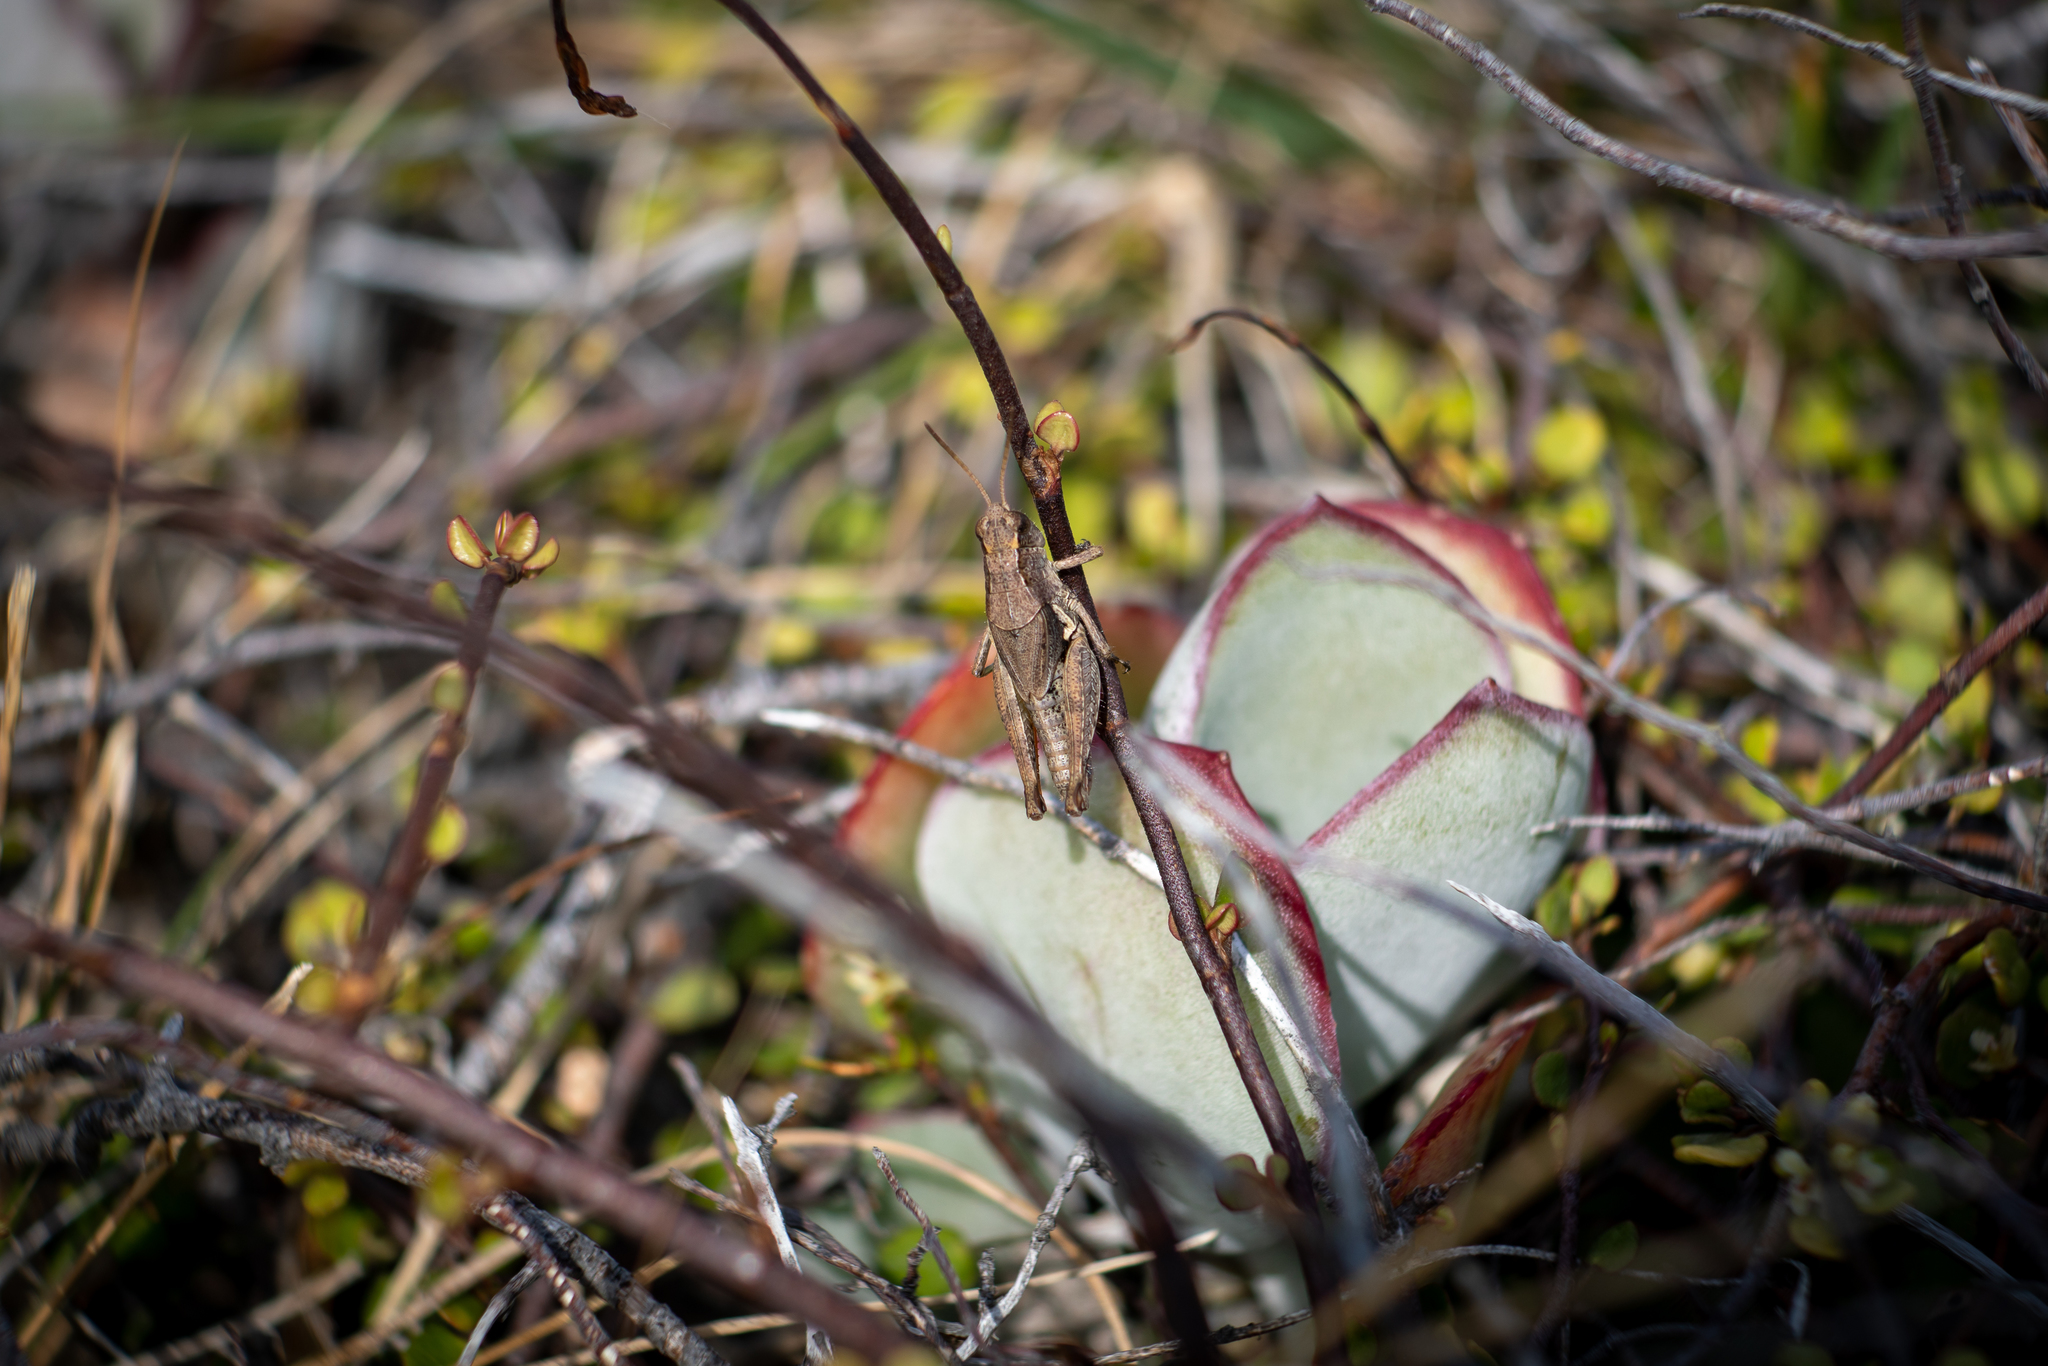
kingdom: Animalia
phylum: Arthropoda
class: Insecta
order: Orthoptera
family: Acrididae
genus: Phaulacridium
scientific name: Phaulacridium marginale
